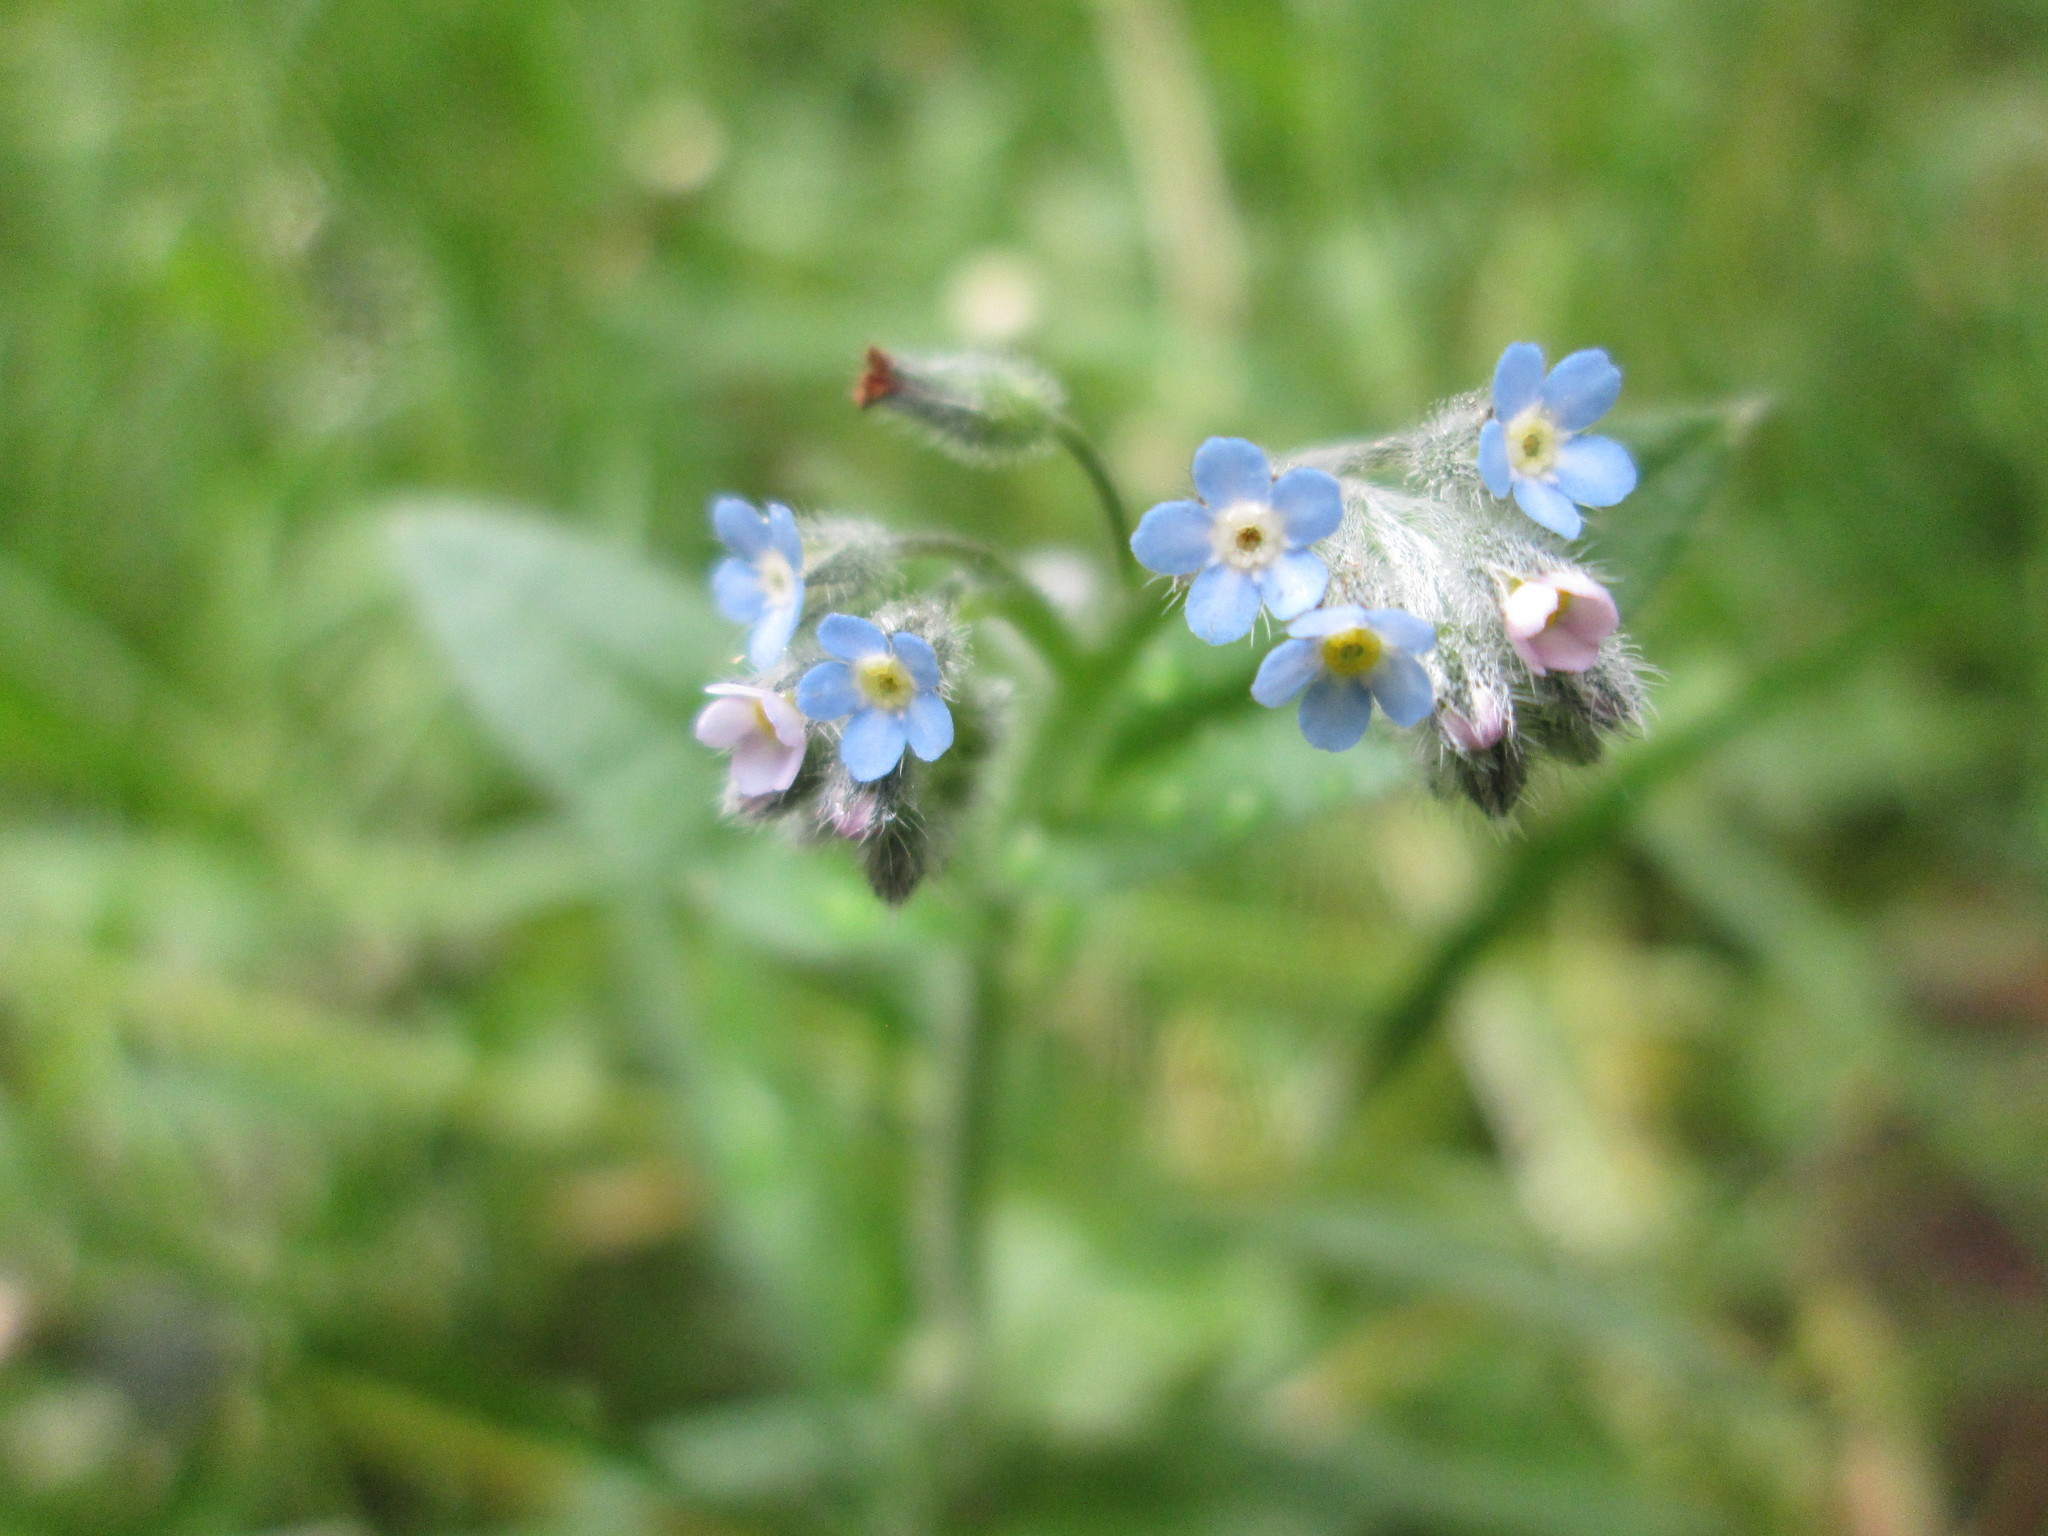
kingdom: Plantae
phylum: Tracheophyta
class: Magnoliopsida
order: Boraginales
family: Boraginaceae
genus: Myosotis
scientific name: Myosotis arvensis
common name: Field forget-me-not
